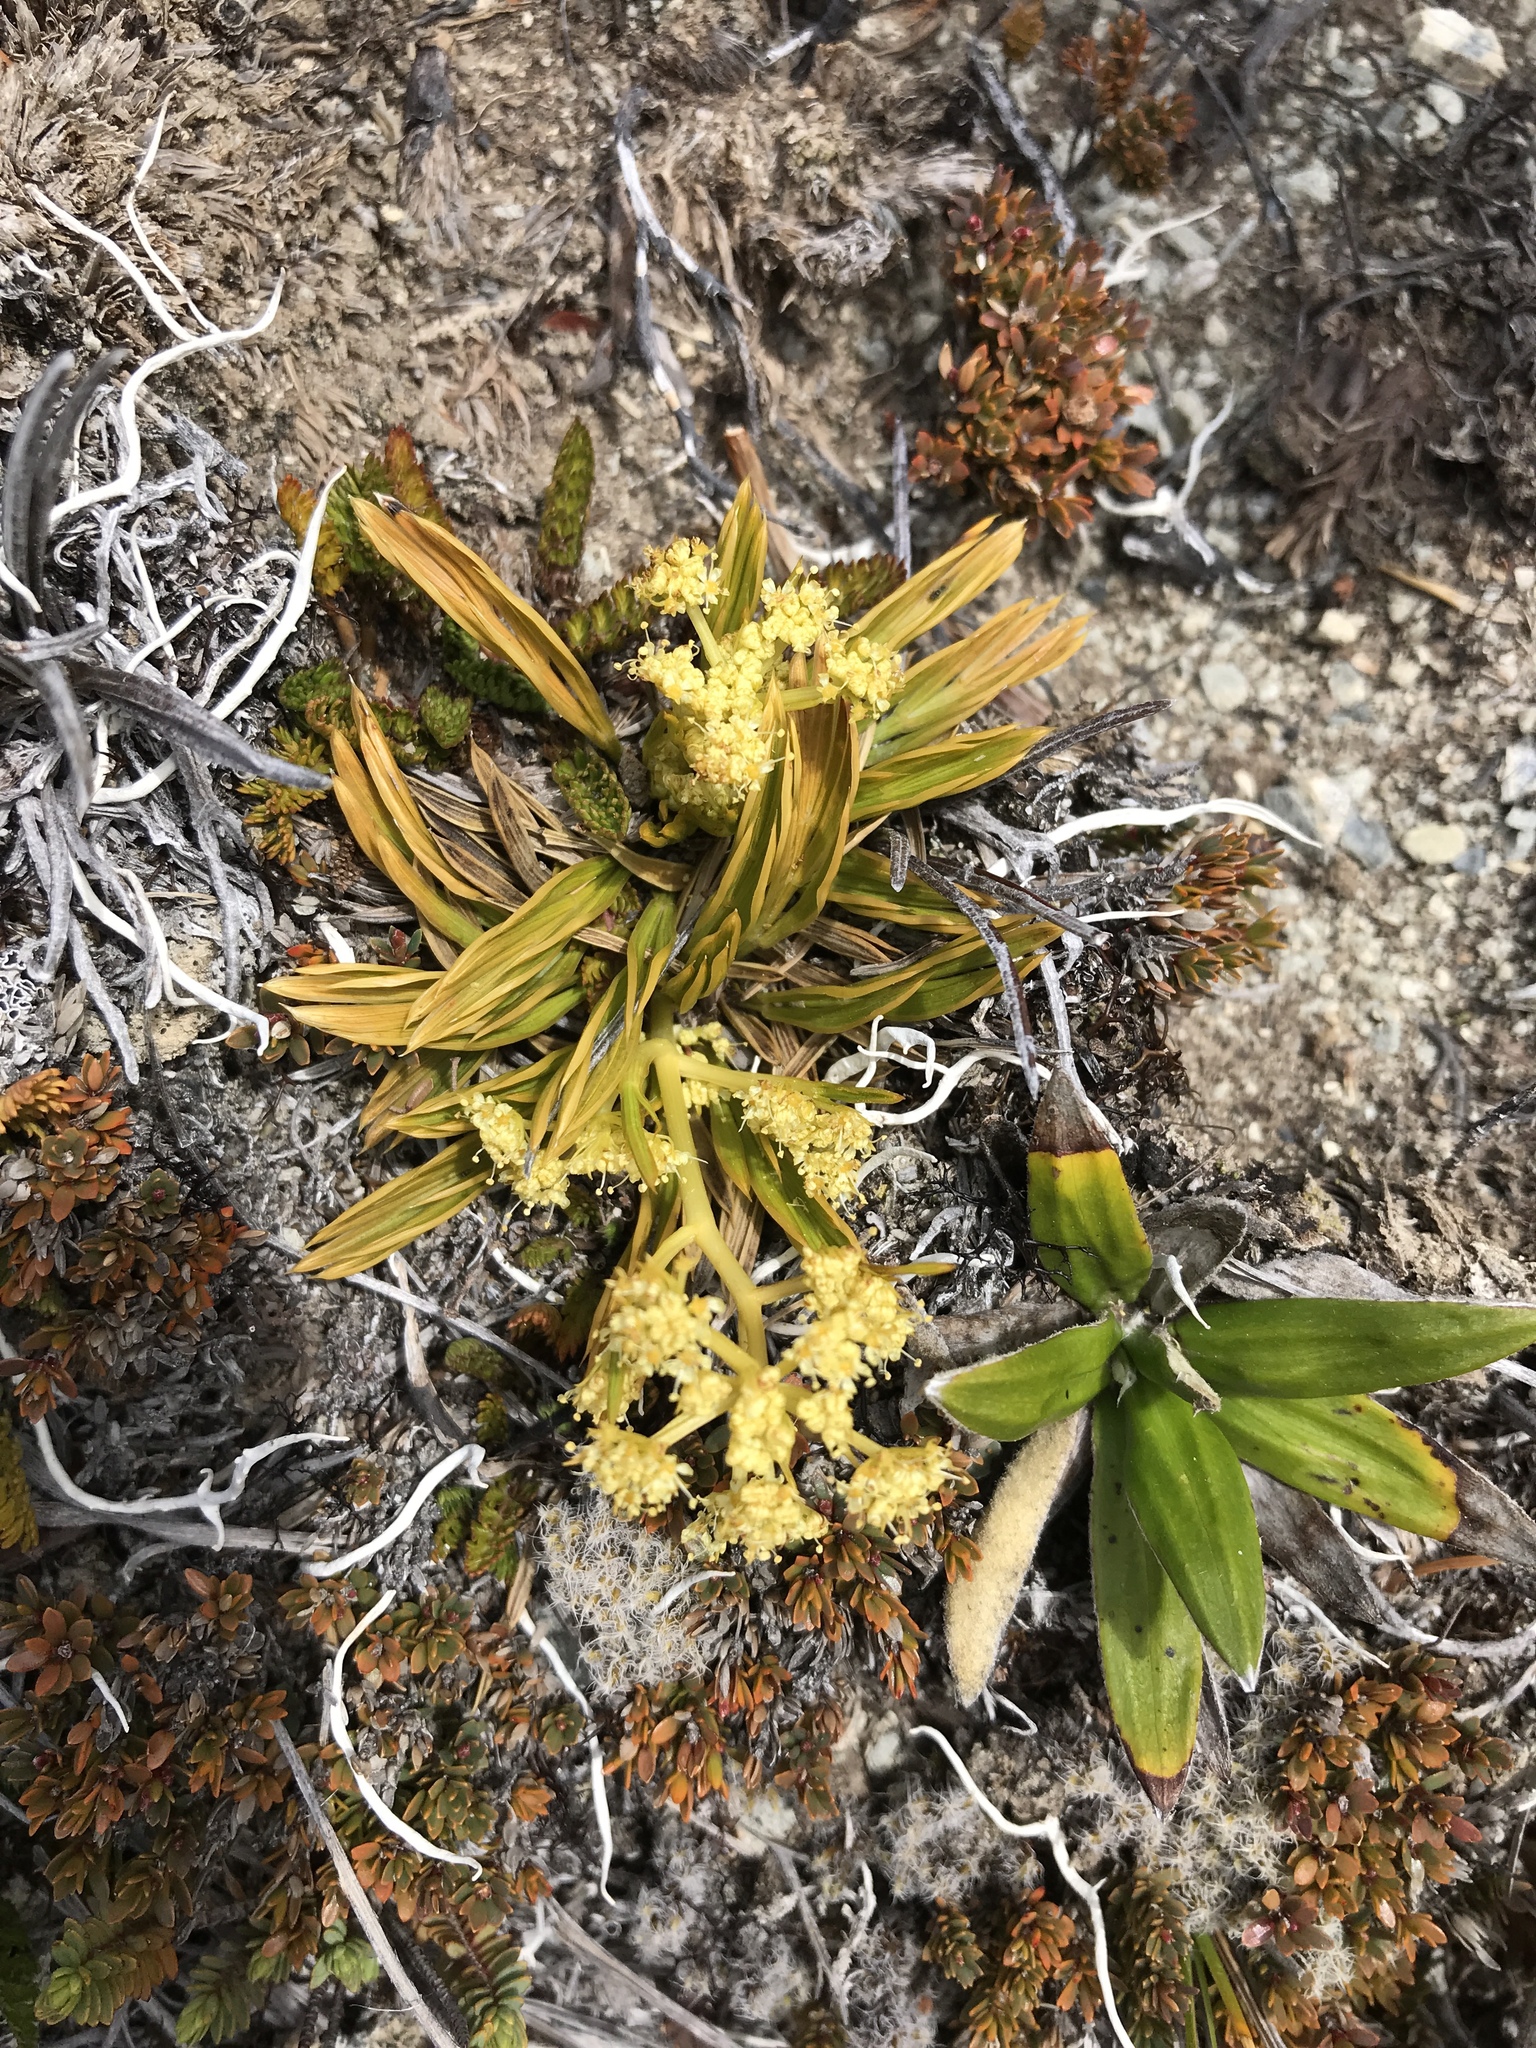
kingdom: Plantae
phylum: Tracheophyta
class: Magnoliopsida
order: Apiales
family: Apiaceae
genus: Aciphylla
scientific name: Aciphylla monroi
